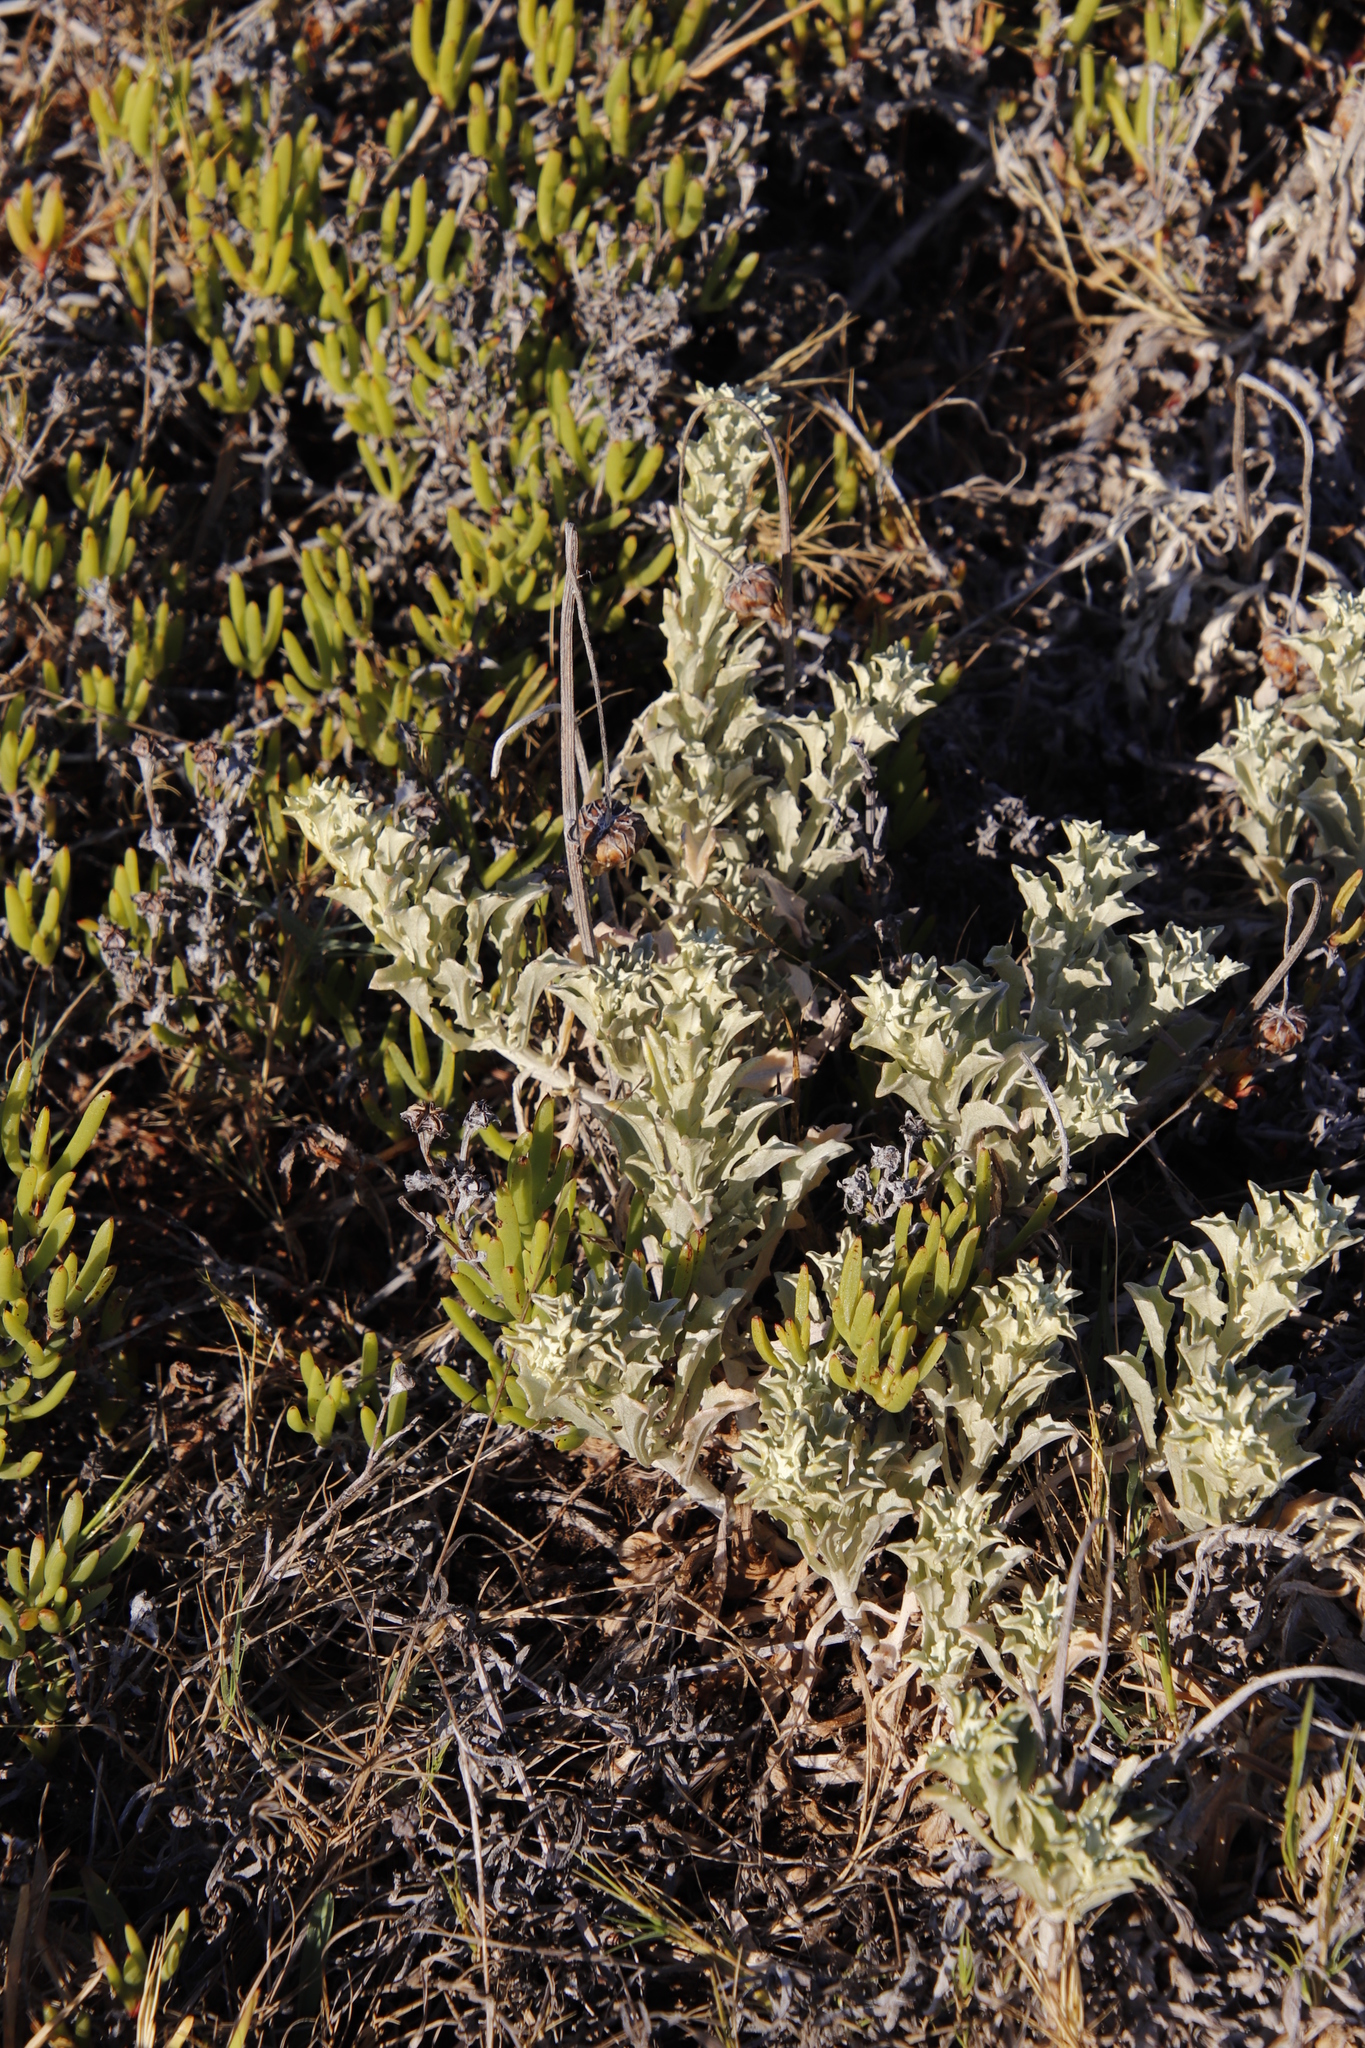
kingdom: Plantae
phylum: Tracheophyta
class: Magnoliopsida
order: Asterales
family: Asteraceae
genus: Arctotis
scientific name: Arctotis stoechadifolia
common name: African daisy
